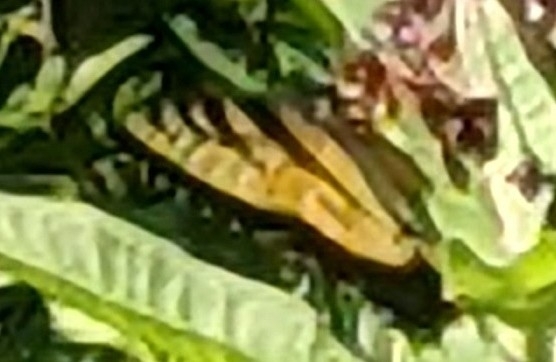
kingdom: Animalia
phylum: Arthropoda
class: Insecta
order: Lepidoptera
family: Papilionidae
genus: Papilio
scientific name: Papilio glaucus
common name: Tiger swallowtail
